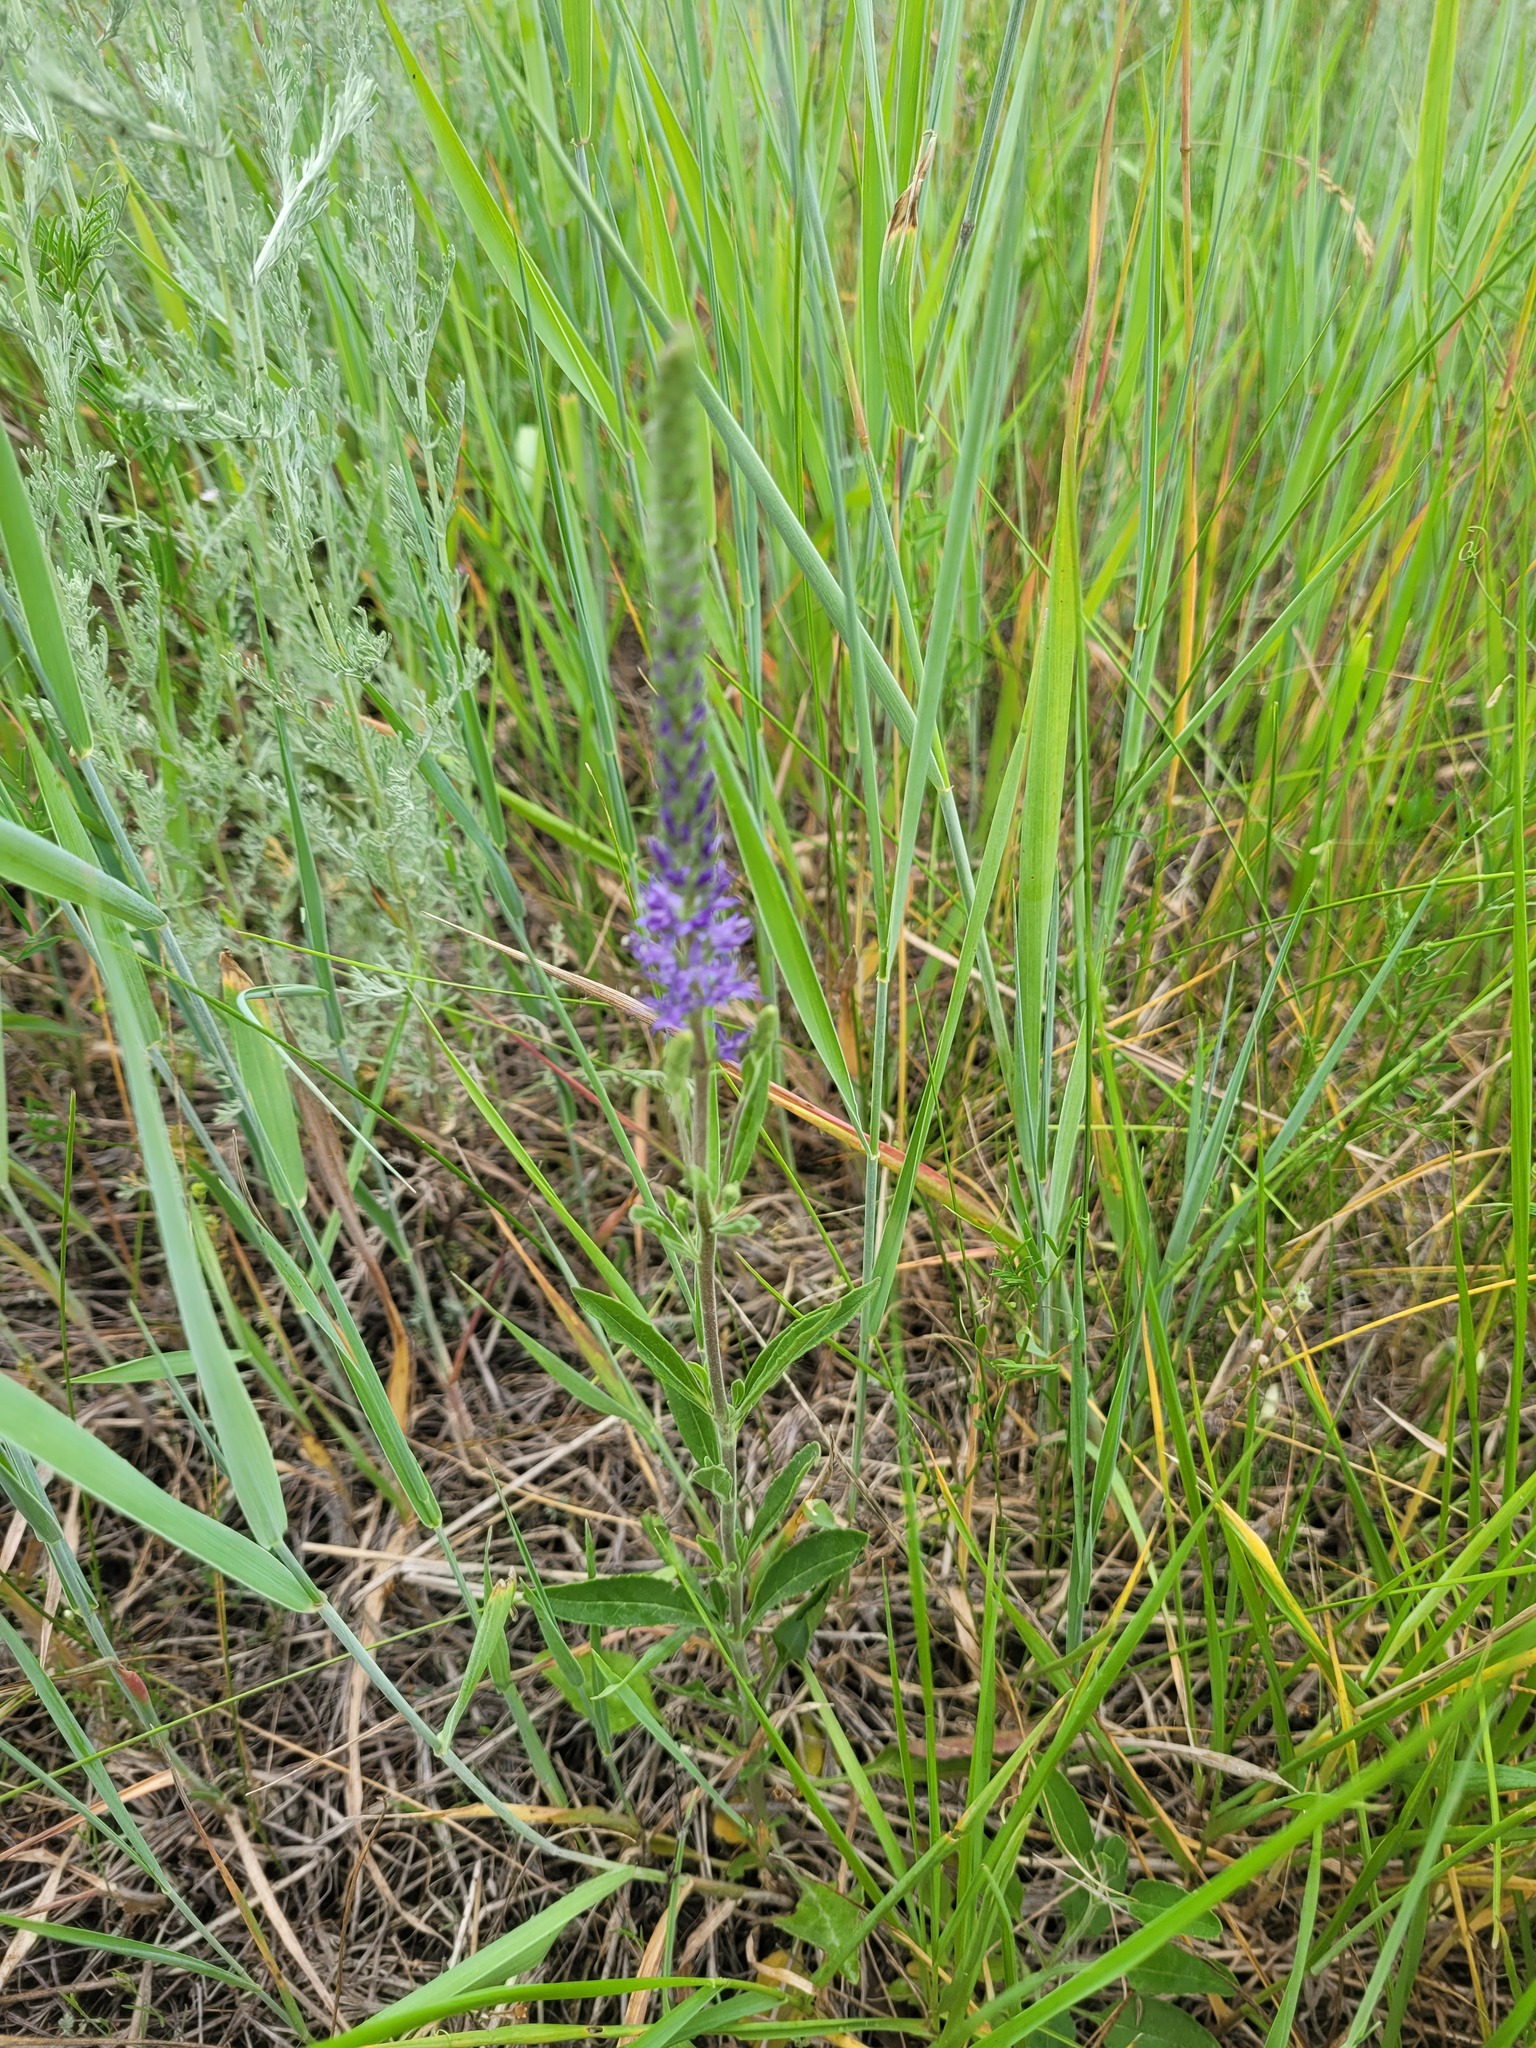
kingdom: Plantae
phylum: Tracheophyta
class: Magnoliopsida
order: Lamiales
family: Plantaginaceae
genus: Veronica
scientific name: Veronica spicata
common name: Spiked speedwell
